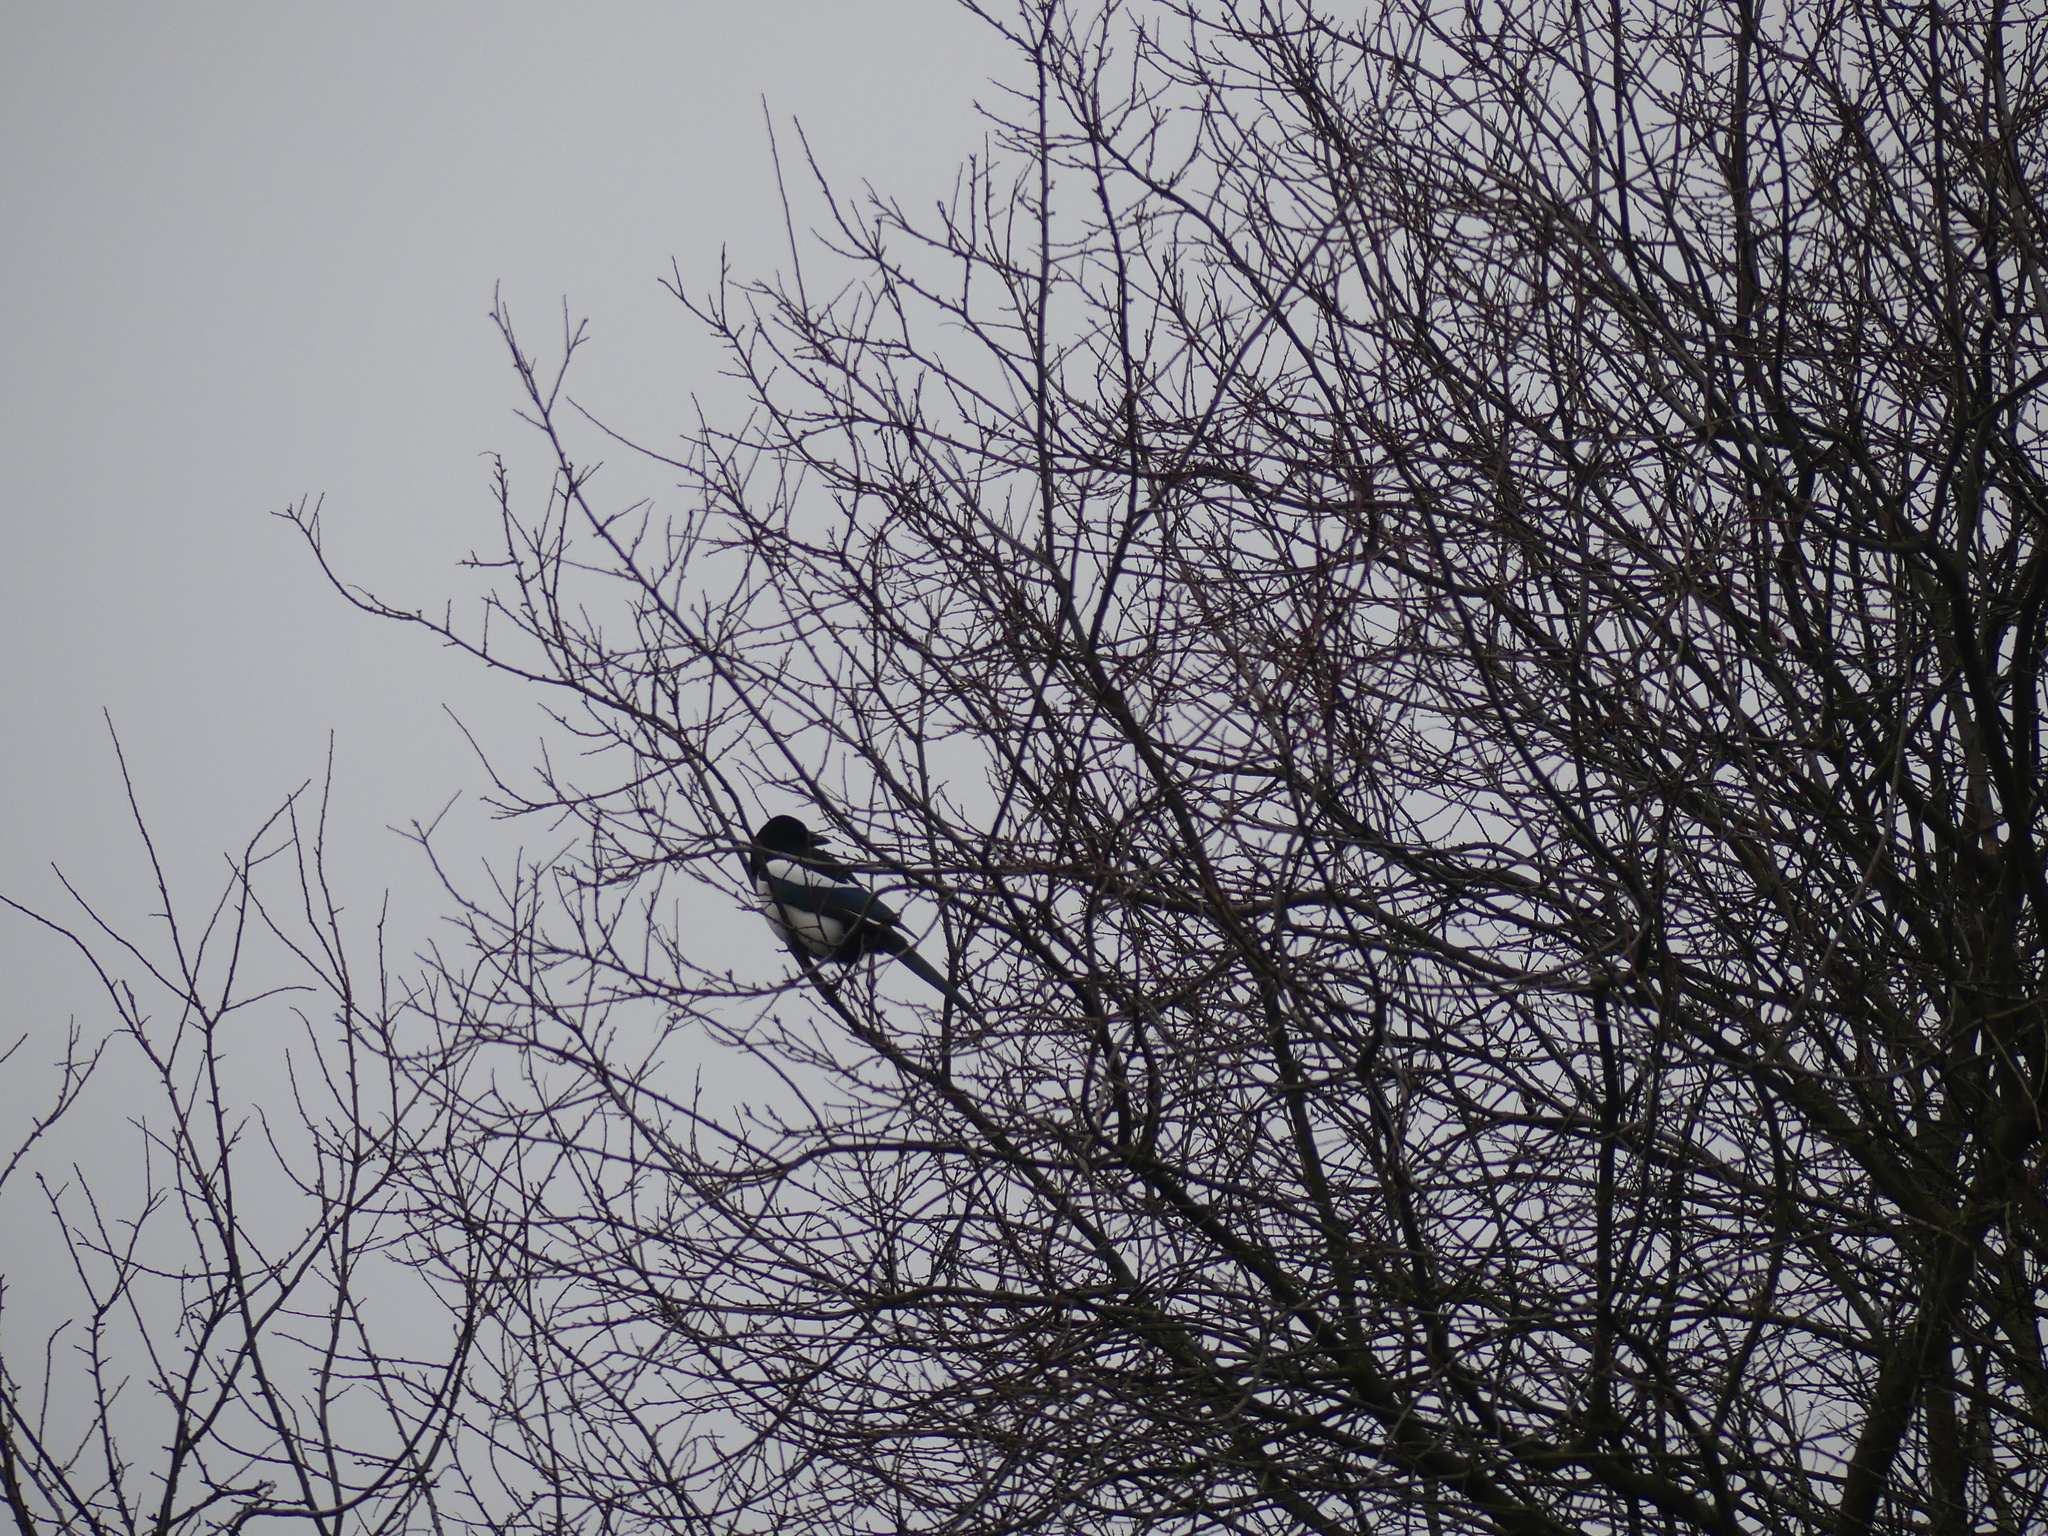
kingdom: Animalia
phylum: Chordata
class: Aves
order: Passeriformes
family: Corvidae
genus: Pica
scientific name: Pica pica
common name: Eurasian magpie
